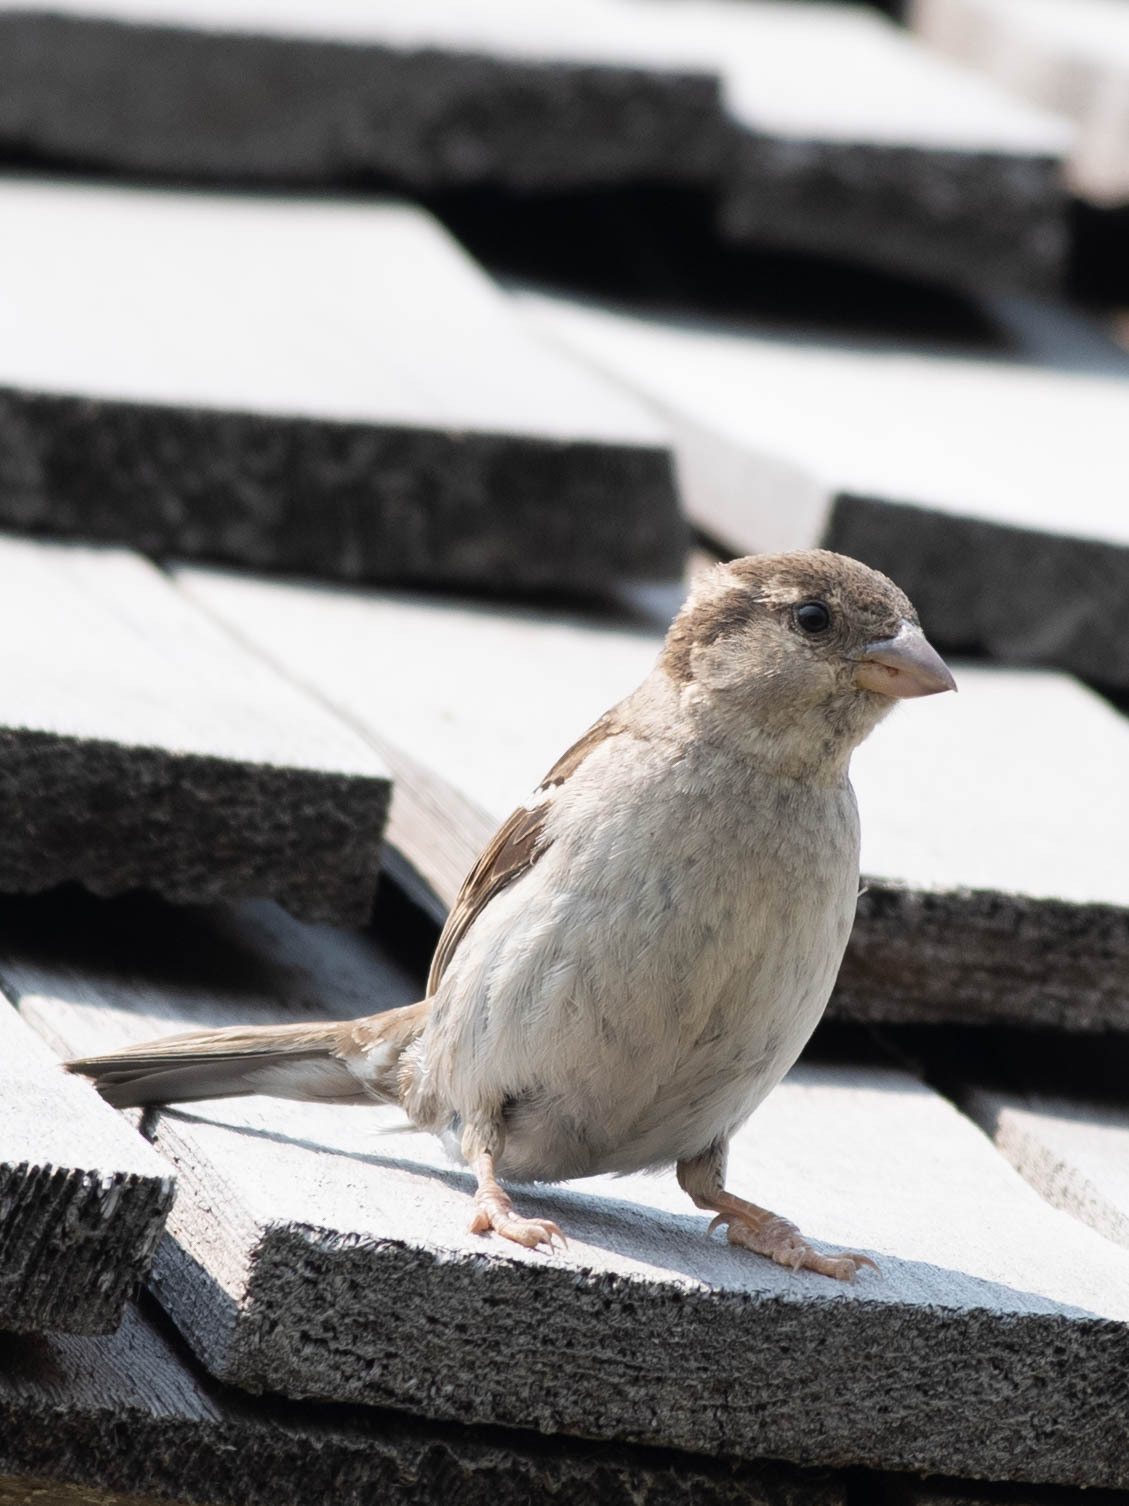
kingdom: Animalia
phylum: Chordata
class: Aves
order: Passeriformes
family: Passeridae
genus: Passer
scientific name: Passer domesticus
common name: House sparrow
